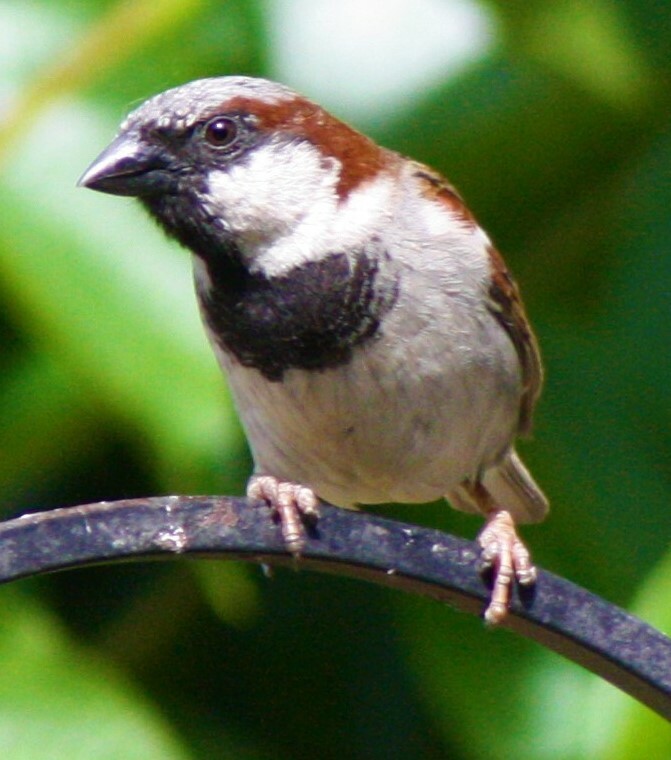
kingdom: Animalia
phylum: Chordata
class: Aves
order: Passeriformes
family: Passeridae
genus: Passer
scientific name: Passer domesticus
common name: House sparrow
